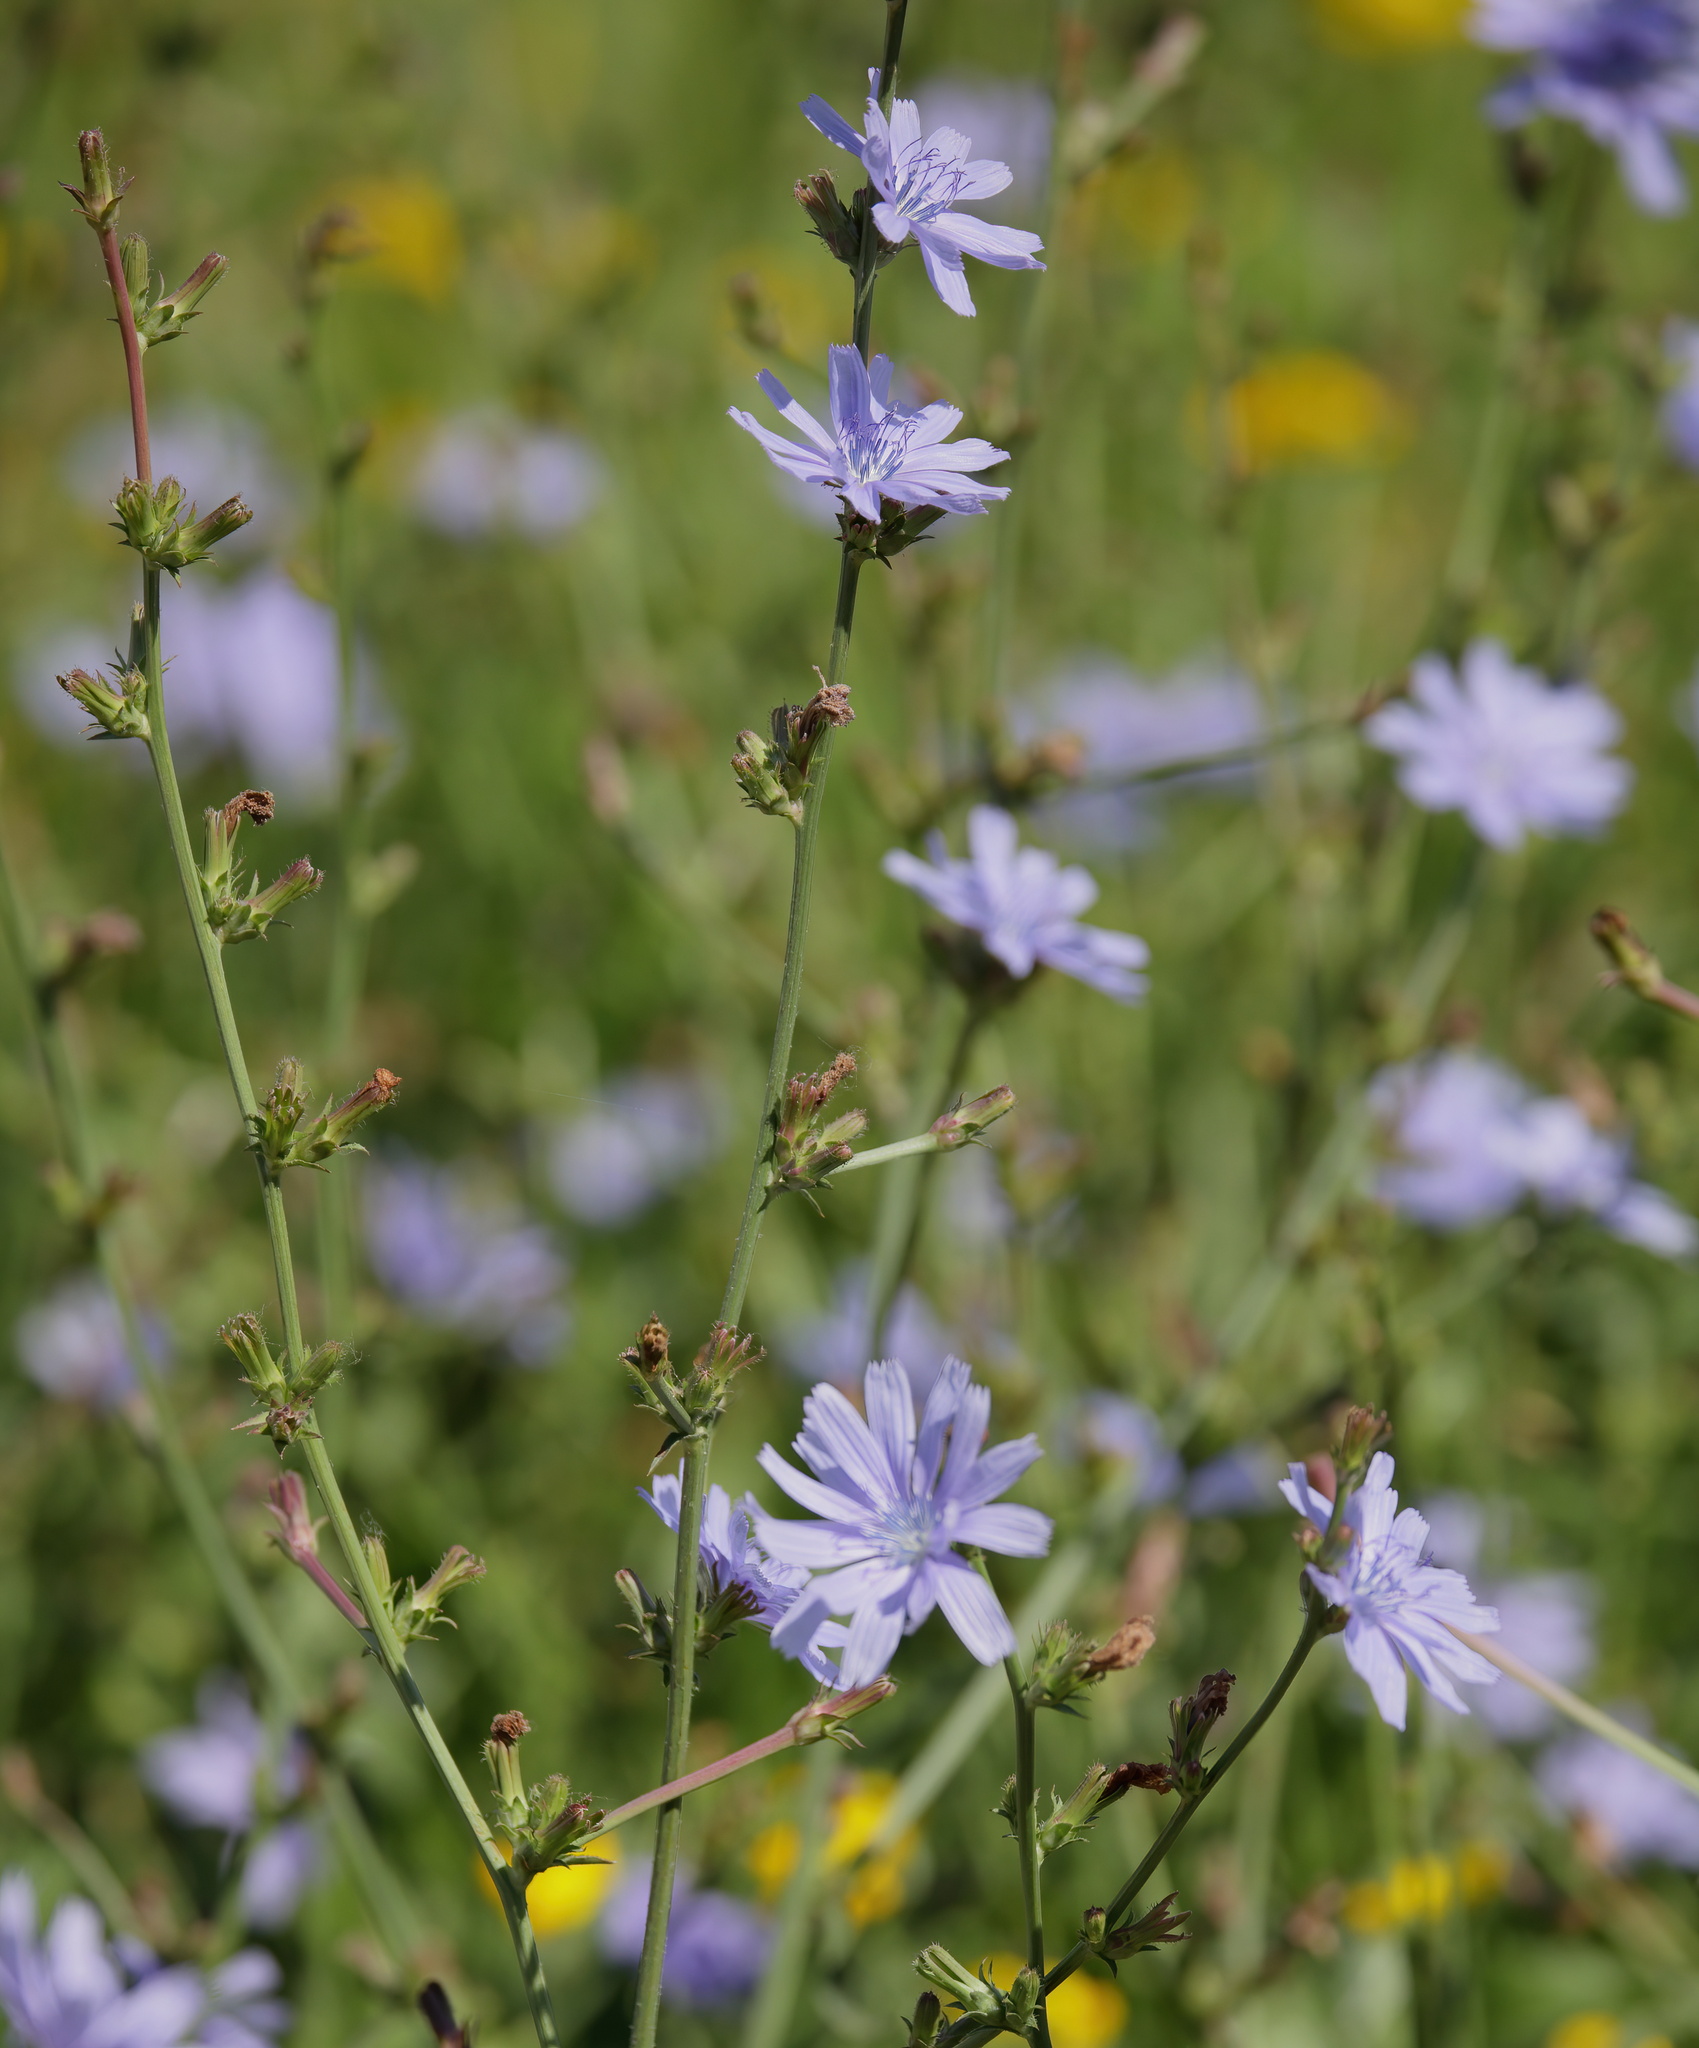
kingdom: Plantae
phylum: Tracheophyta
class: Magnoliopsida
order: Asterales
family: Asteraceae
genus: Cichorium
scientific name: Cichorium intybus
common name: Chicory
